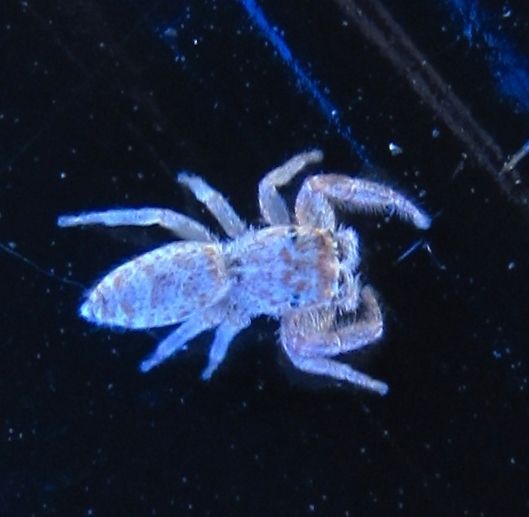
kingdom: Animalia
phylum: Arthropoda
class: Arachnida
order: Araneae
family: Salticidae
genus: Hentzia
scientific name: Hentzia mitrata
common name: White-jawed jumping spider
